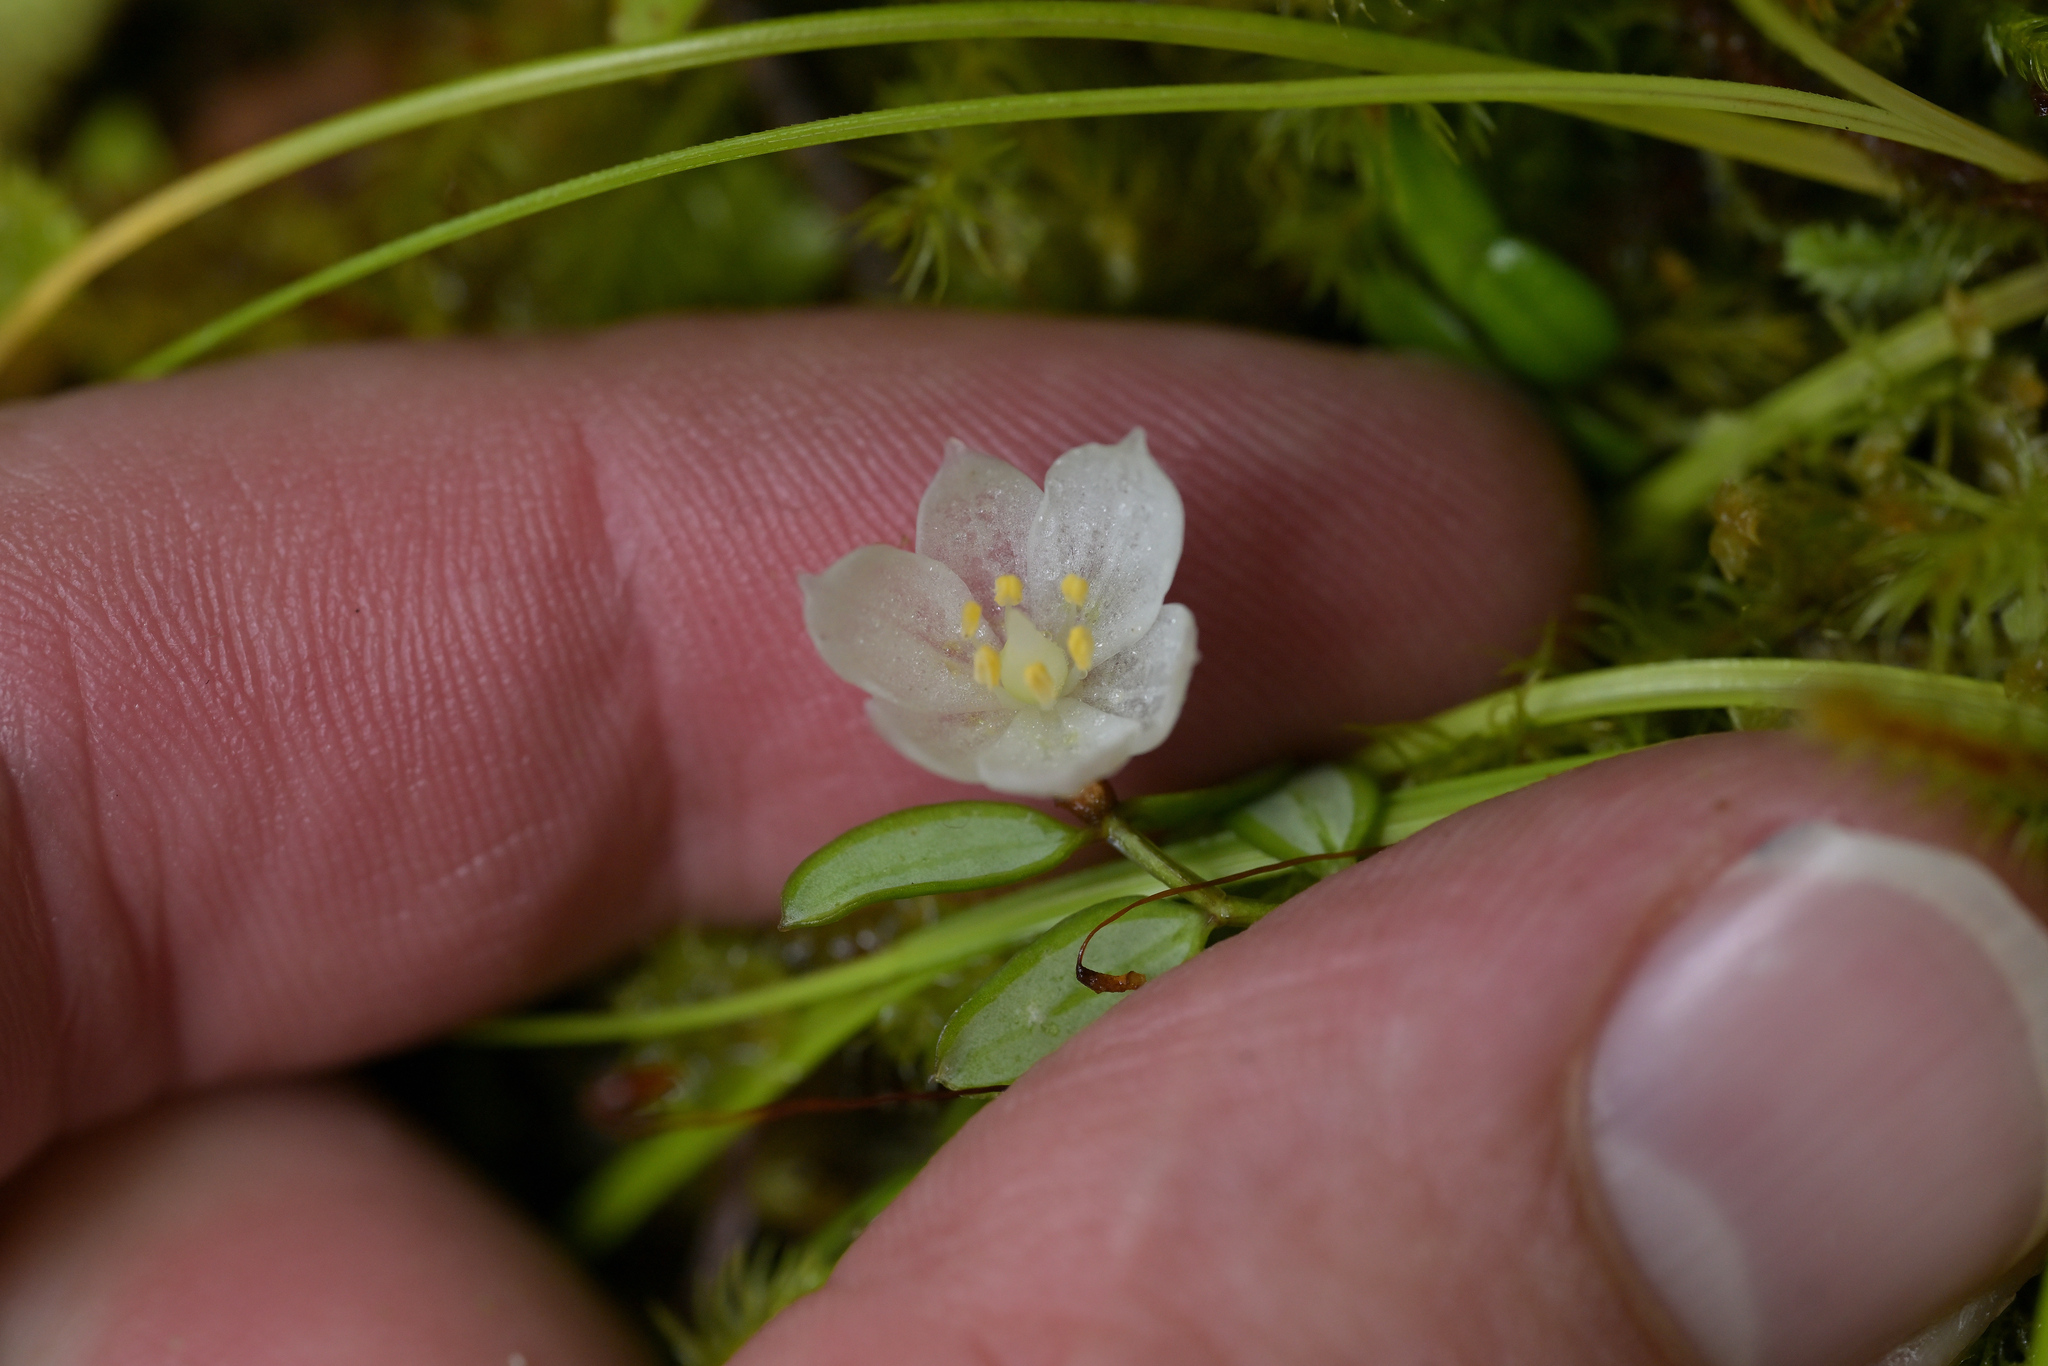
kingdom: Plantae
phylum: Tracheophyta
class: Liliopsida
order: Liliales
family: Alstroemeriaceae
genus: Luzuriaga
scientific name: Luzuriaga parviflora
